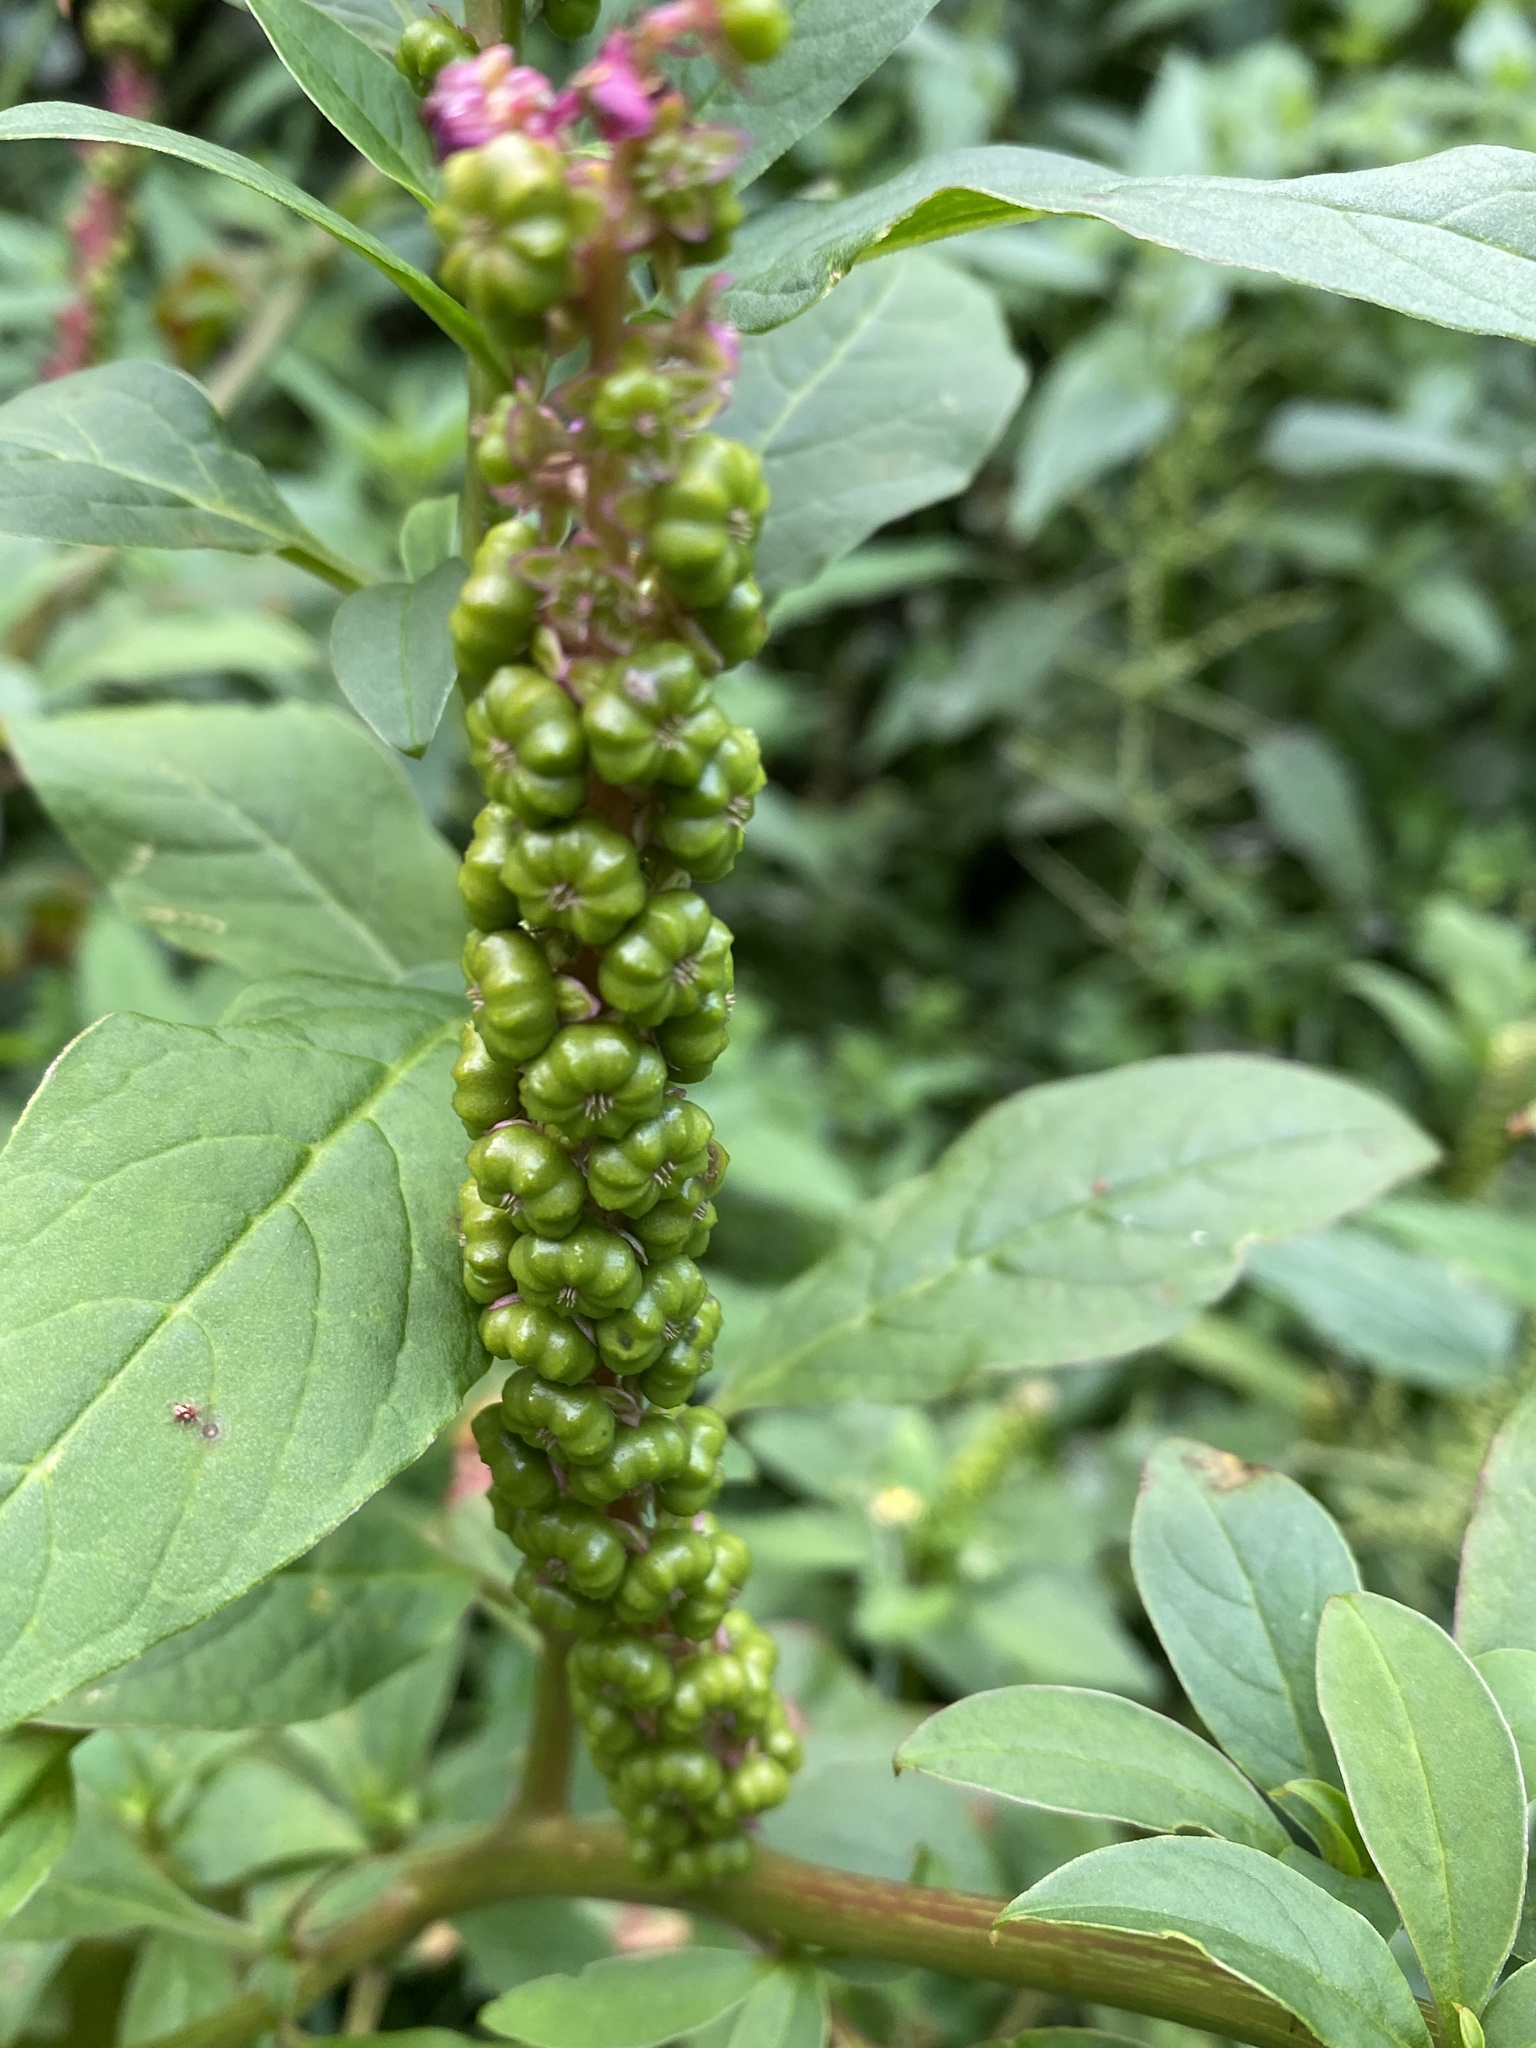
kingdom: Plantae
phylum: Tracheophyta
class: Magnoliopsida
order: Caryophyllales
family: Phytolaccaceae
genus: Phytolacca
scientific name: Phytolacca icosandra
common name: Button pokeweed
